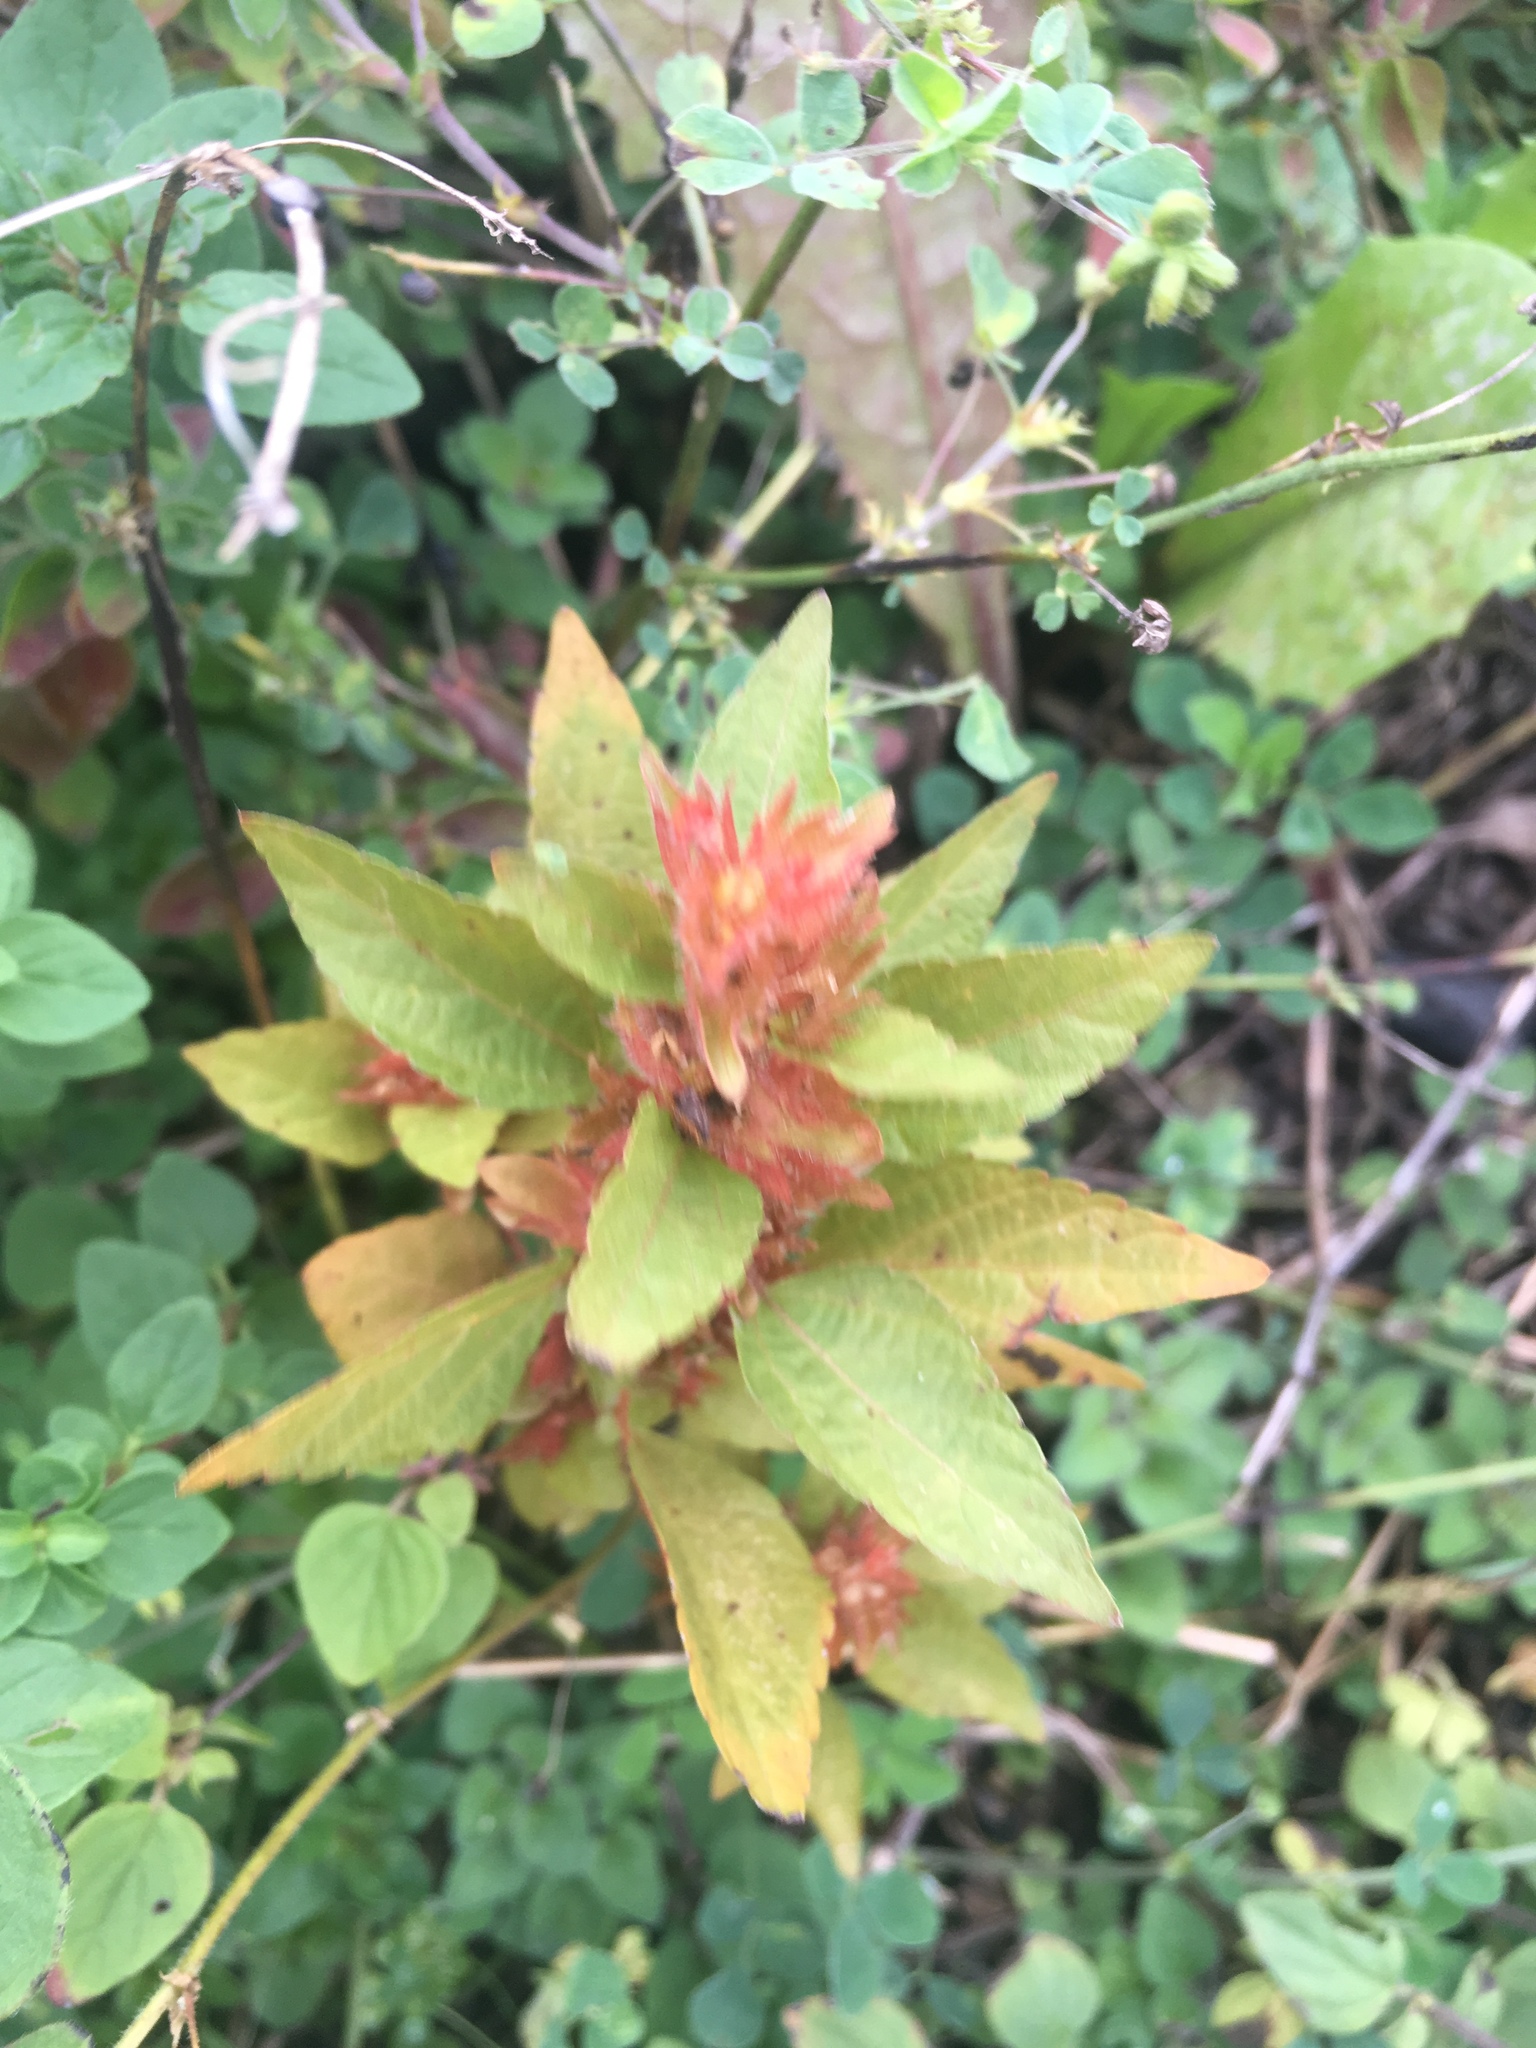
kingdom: Plantae
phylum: Tracheophyta
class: Magnoliopsida
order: Malpighiales
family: Euphorbiaceae
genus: Acalypha
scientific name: Acalypha rhomboidea
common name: Rhombic copperleaf
